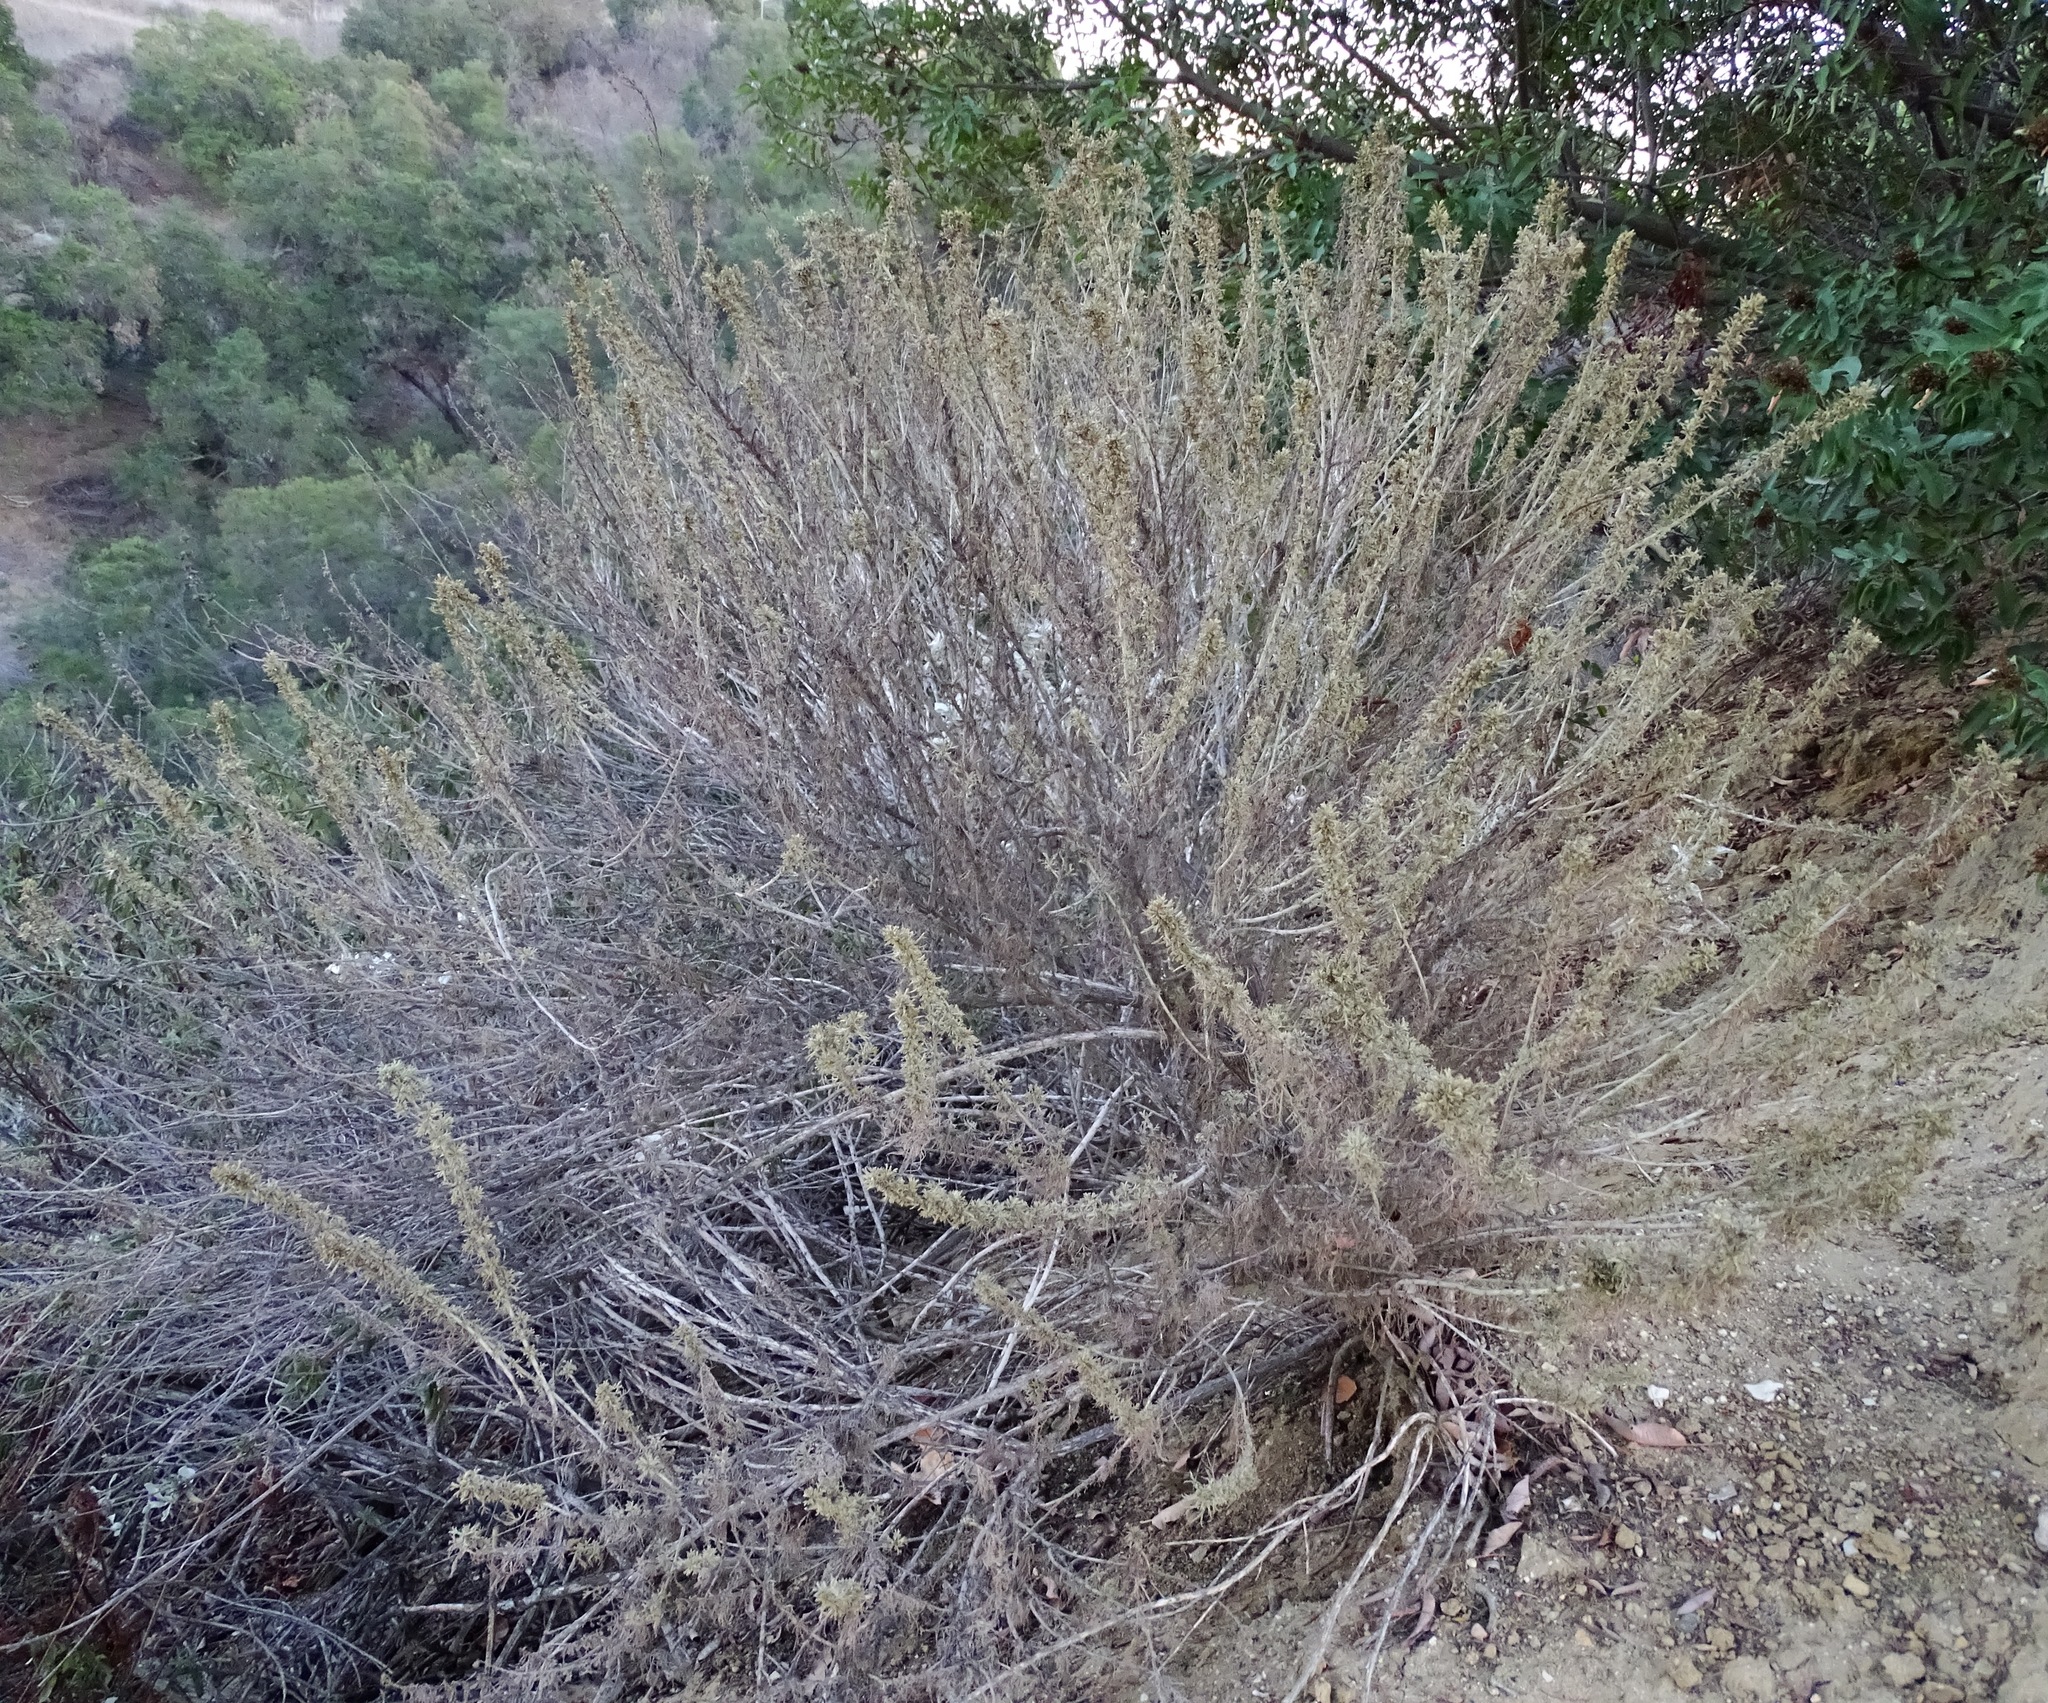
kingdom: Plantae
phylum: Tracheophyta
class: Magnoliopsida
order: Asterales
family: Asteraceae
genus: Artemisia
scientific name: Artemisia californica
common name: California sagebrush
